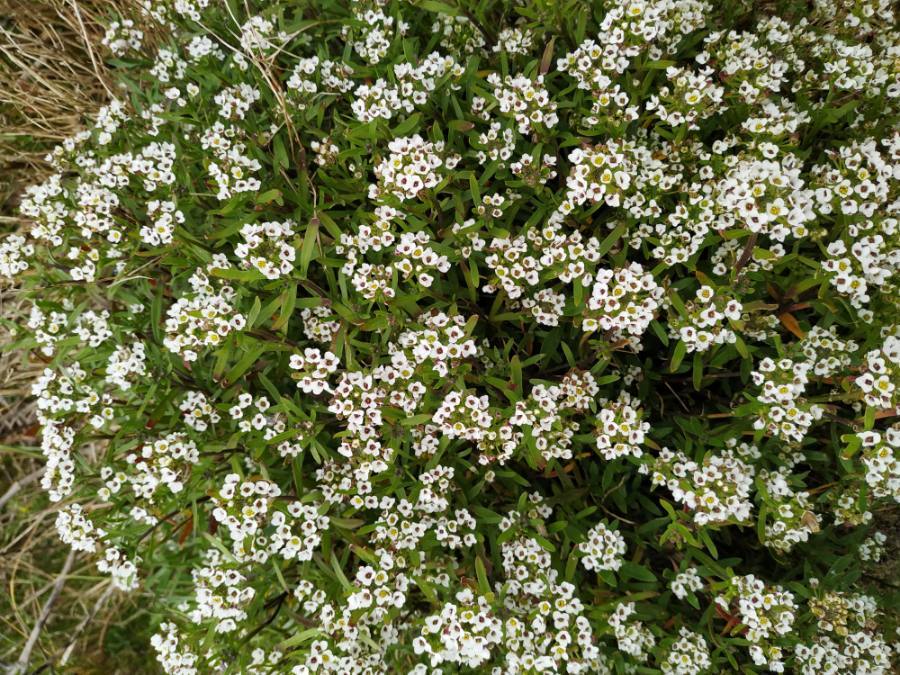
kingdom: Plantae
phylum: Tracheophyta
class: Magnoliopsida
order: Brassicales
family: Brassicaceae
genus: Lobularia
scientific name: Lobularia maritima
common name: Sweet alison
